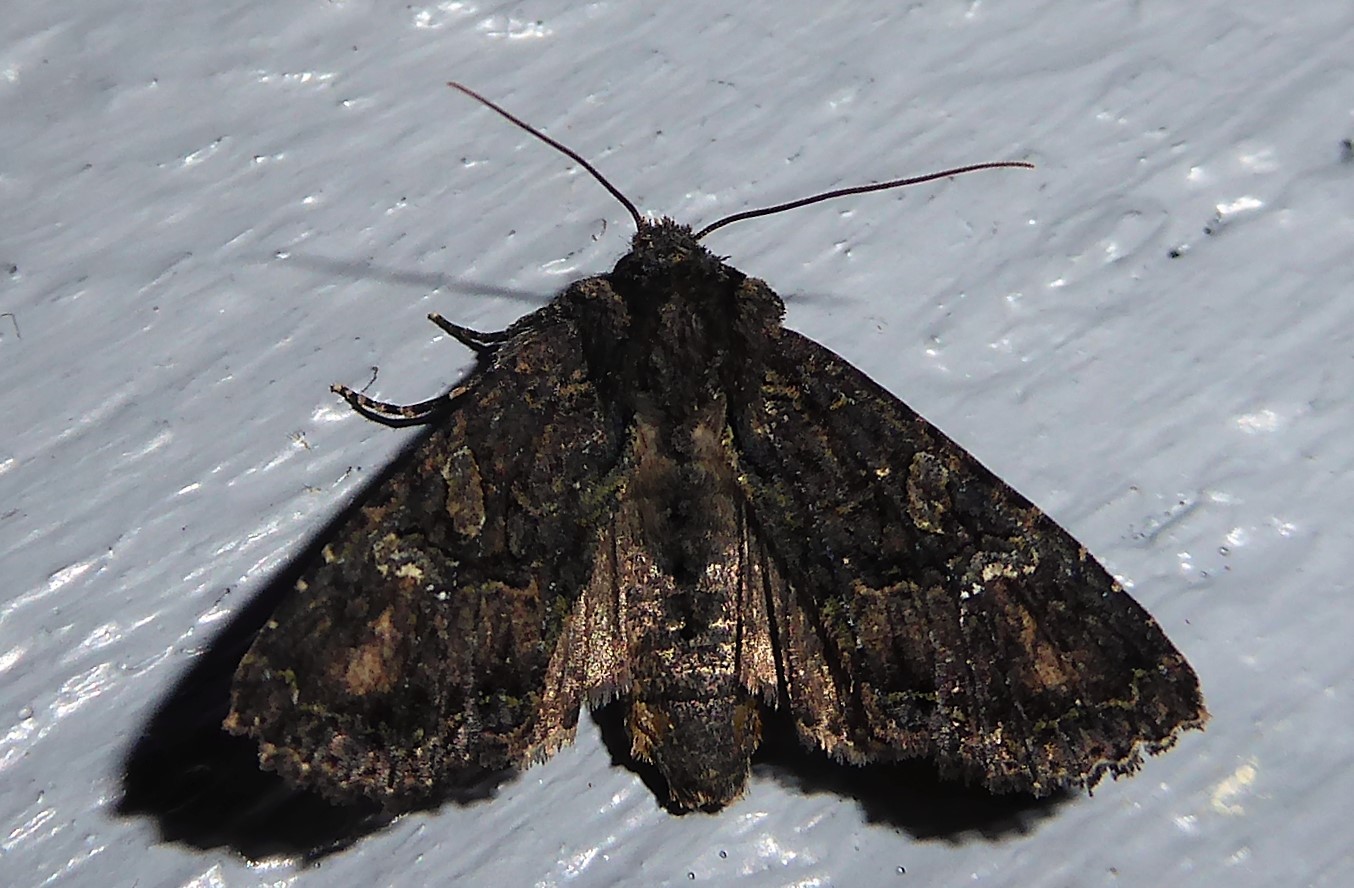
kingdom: Animalia
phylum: Arthropoda
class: Insecta
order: Lepidoptera
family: Noctuidae
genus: Meterana
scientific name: Meterana ochthistis
